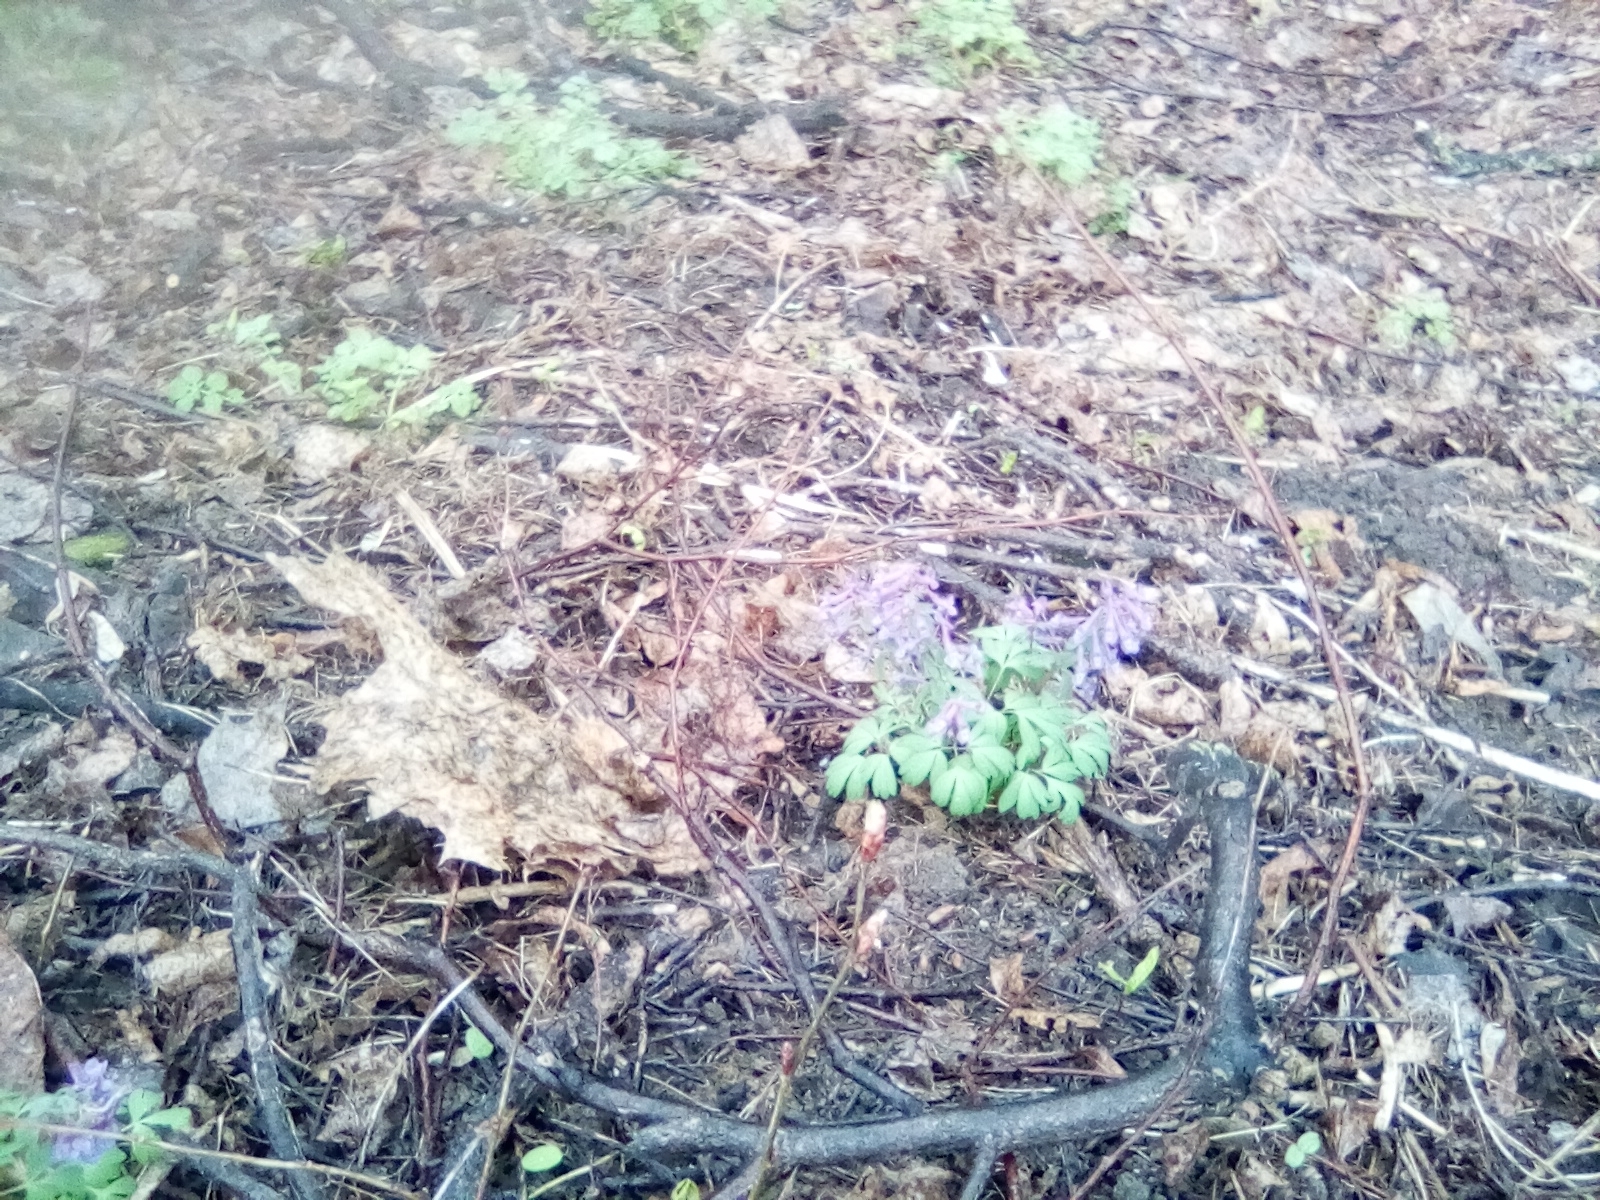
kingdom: Plantae
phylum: Tracheophyta
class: Magnoliopsida
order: Ranunculales
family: Papaveraceae
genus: Corydalis
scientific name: Corydalis solida
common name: Bird-in-a-bush
